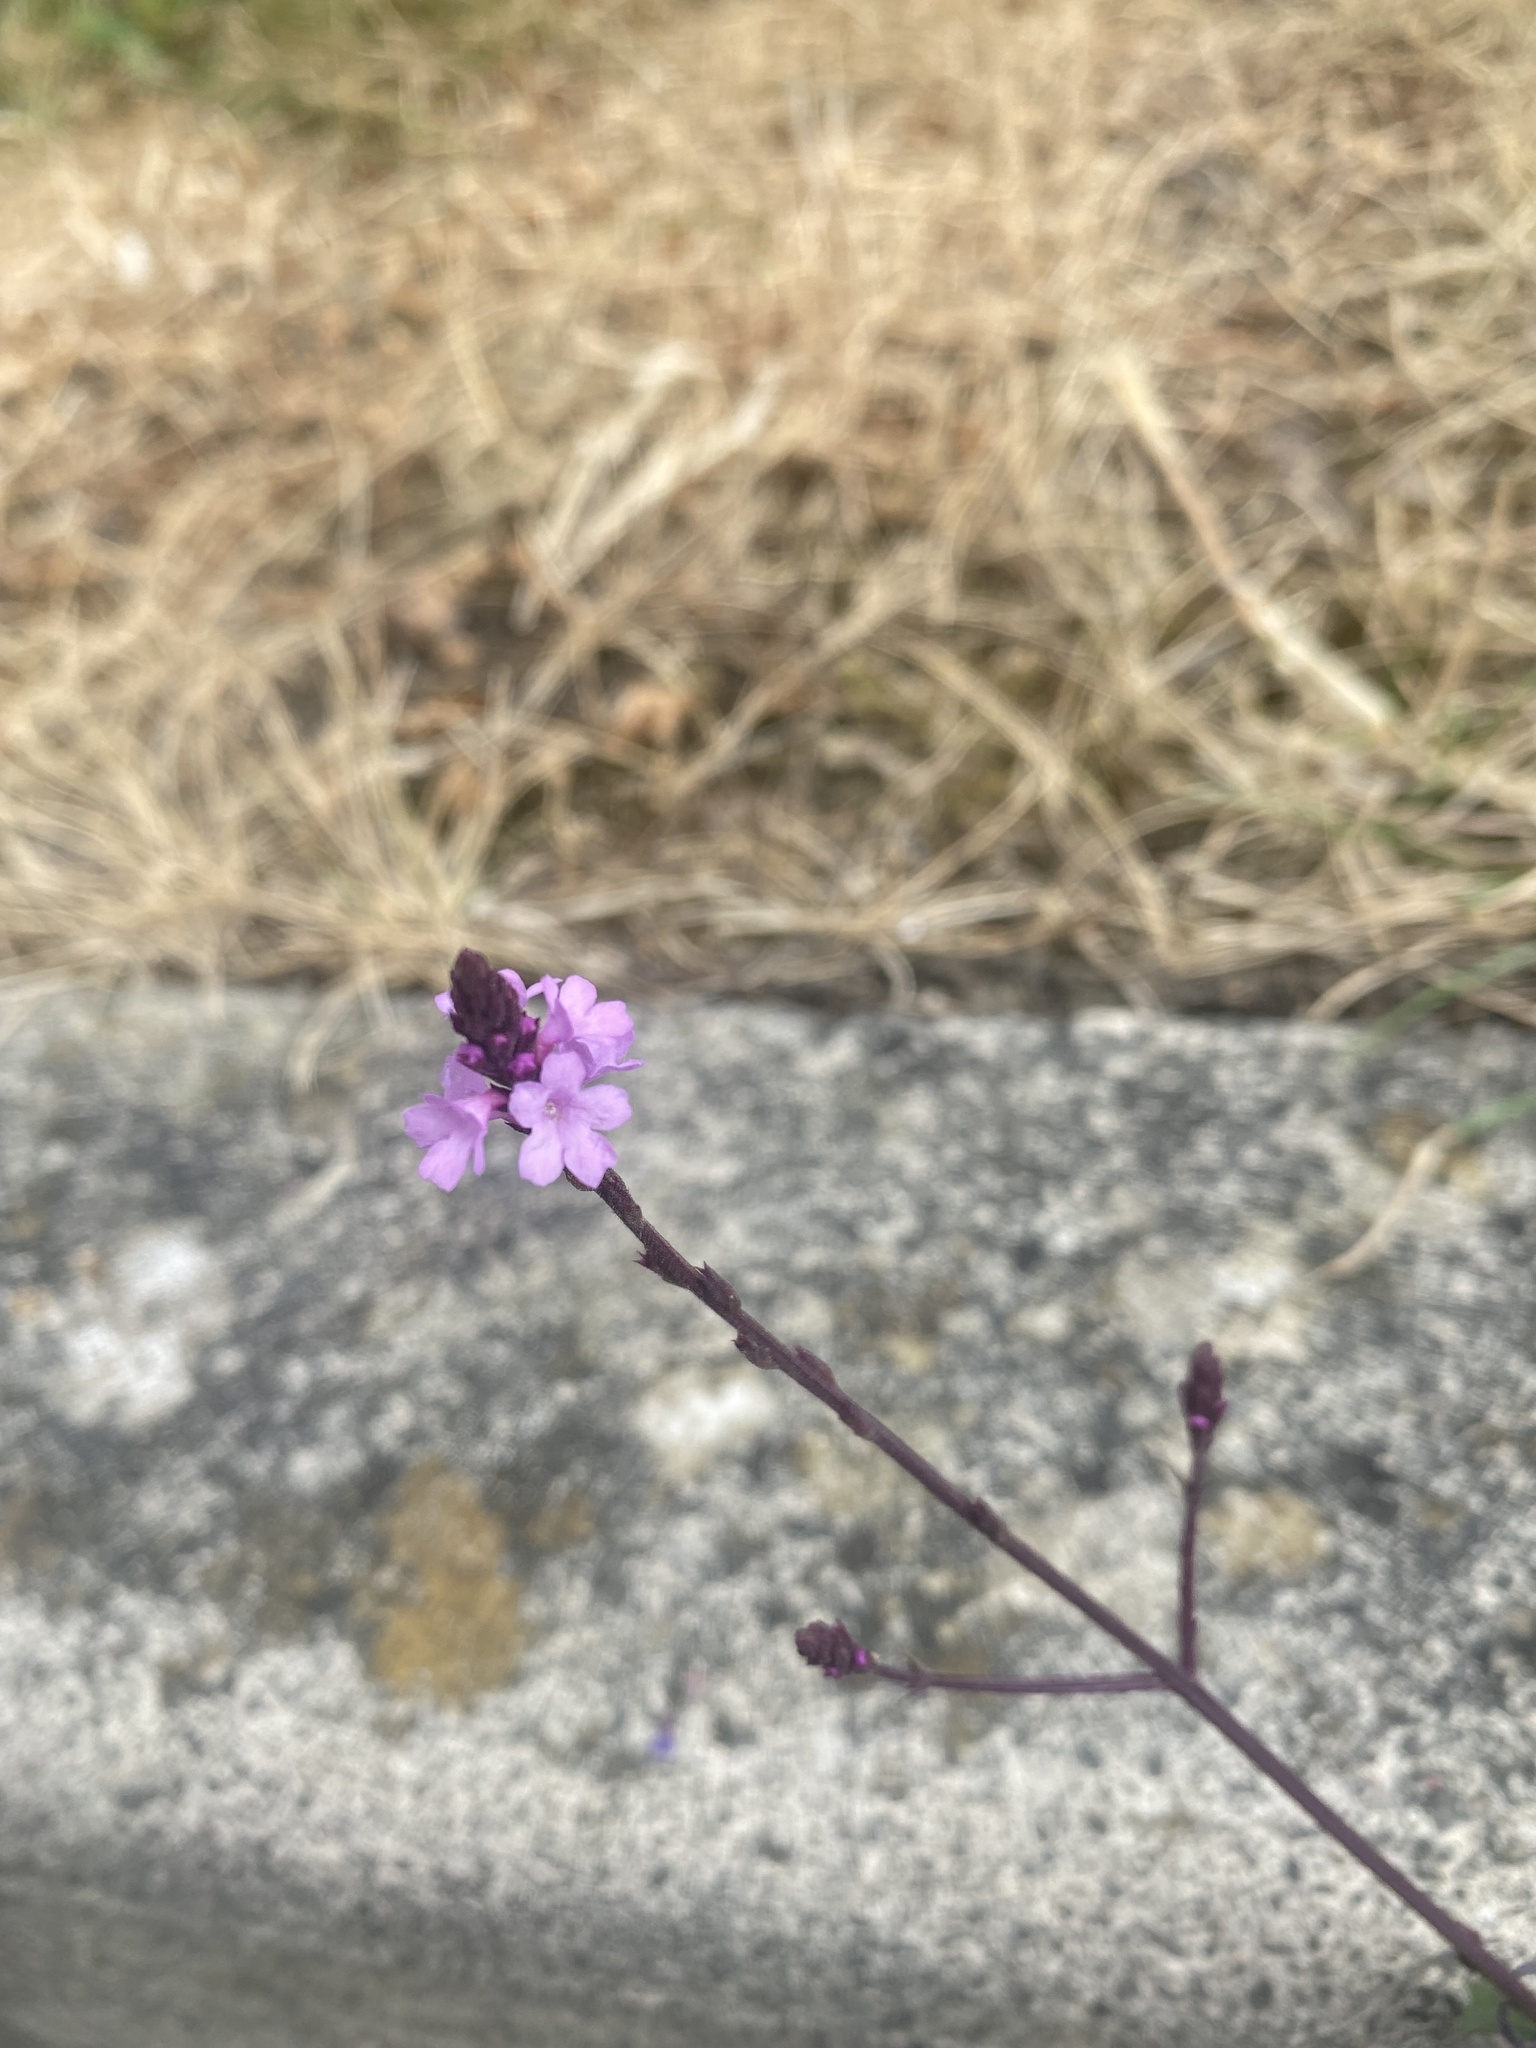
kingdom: Plantae
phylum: Tracheophyta
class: Magnoliopsida
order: Lamiales
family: Verbenaceae
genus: Verbena
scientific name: Verbena officinalis
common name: Vervain
